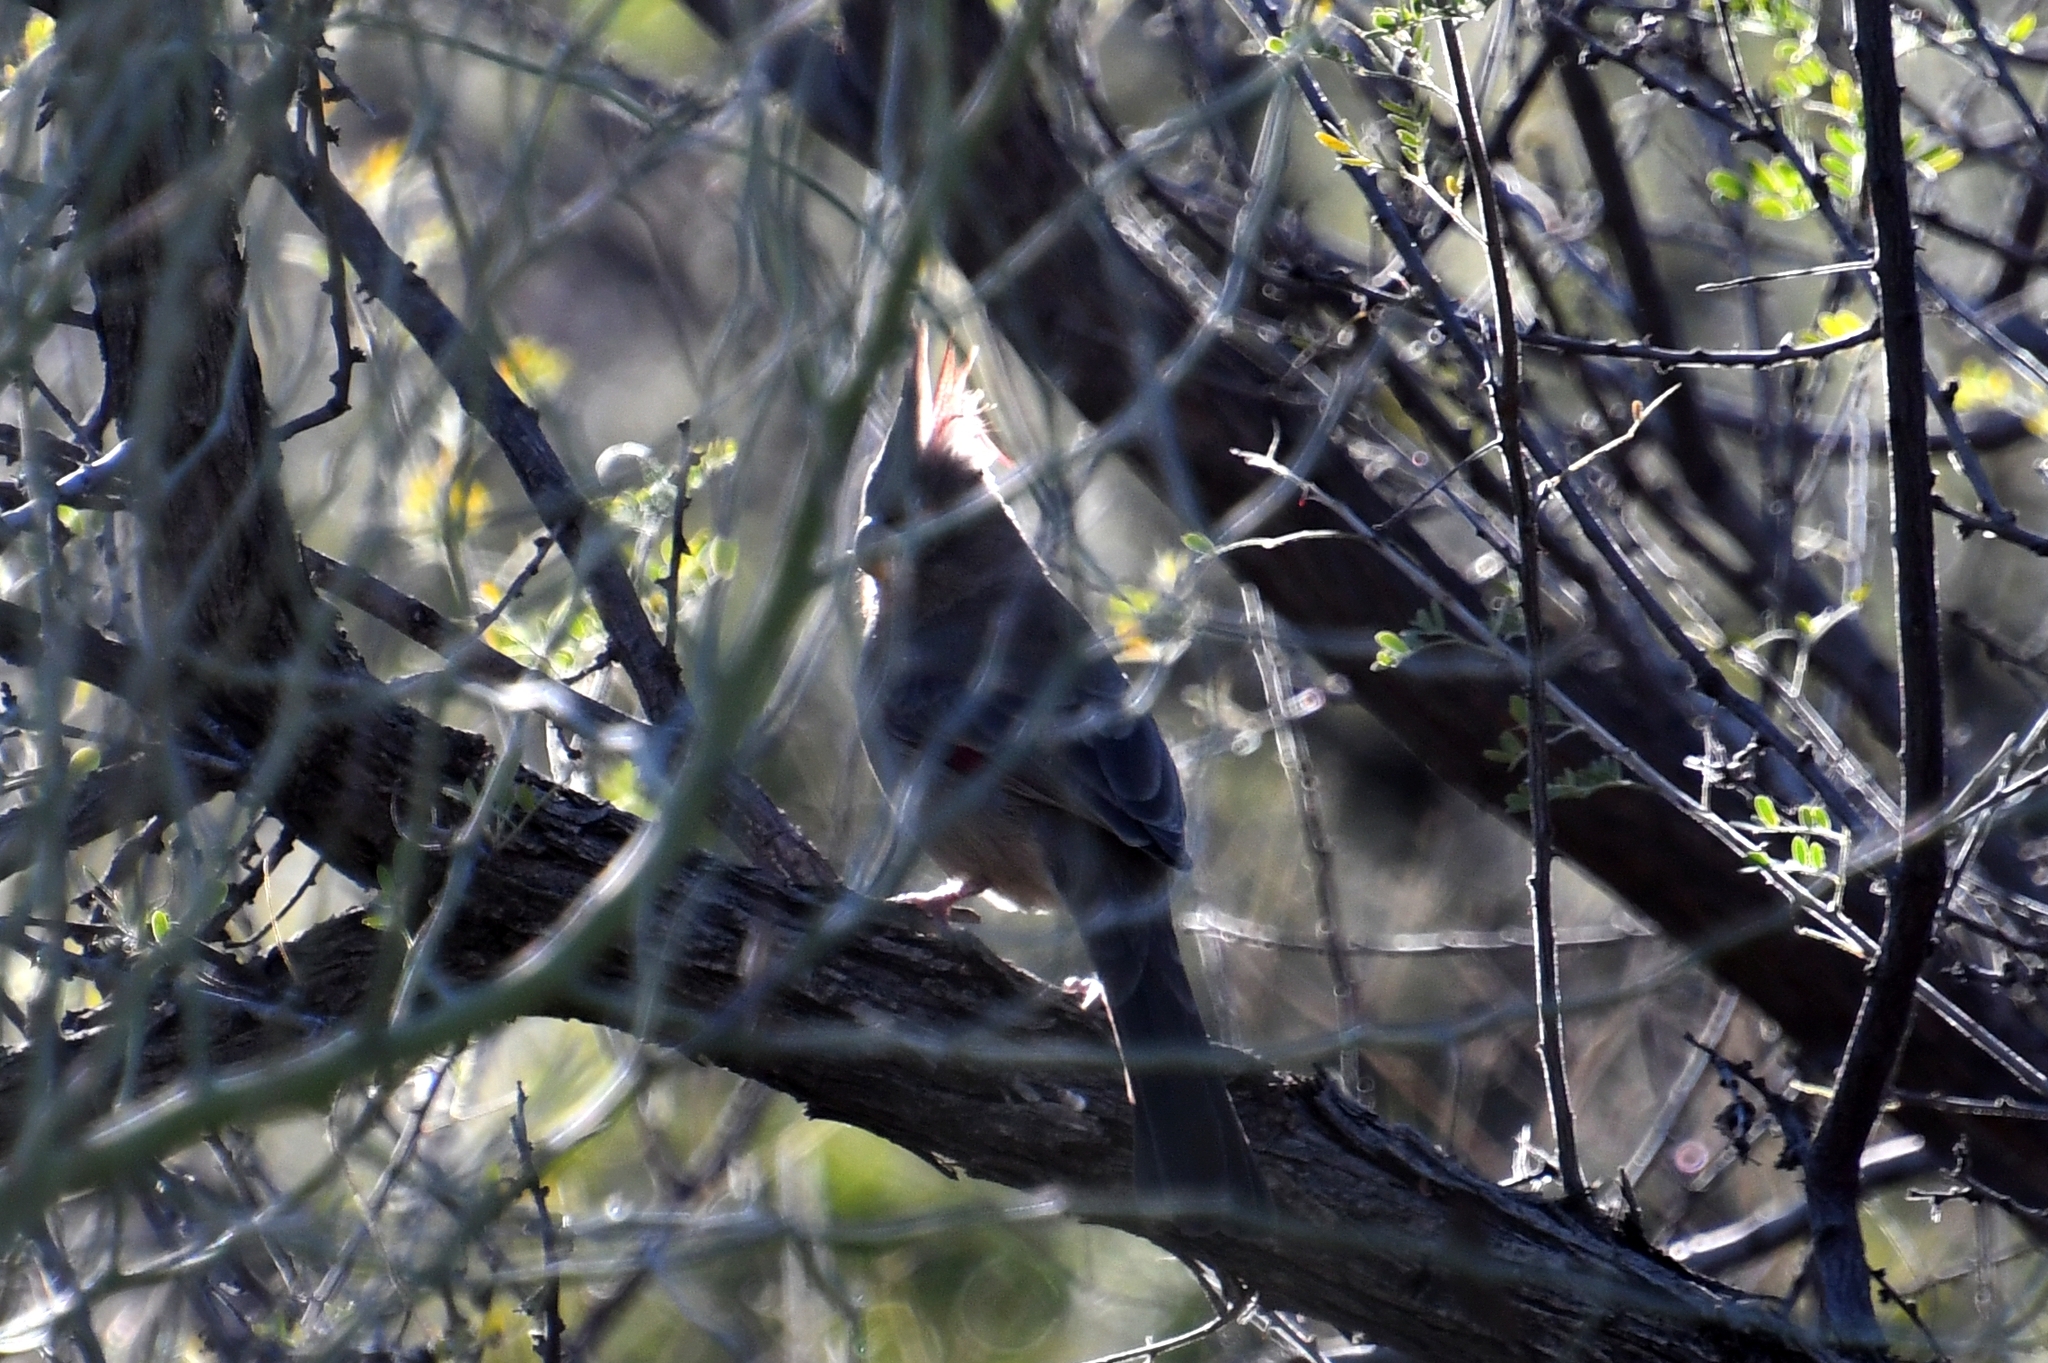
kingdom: Animalia
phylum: Chordata
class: Aves
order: Passeriformes
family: Cardinalidae
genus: Cardinalis
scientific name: Cardinalis sinuatus
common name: Pyrrhuloxia
